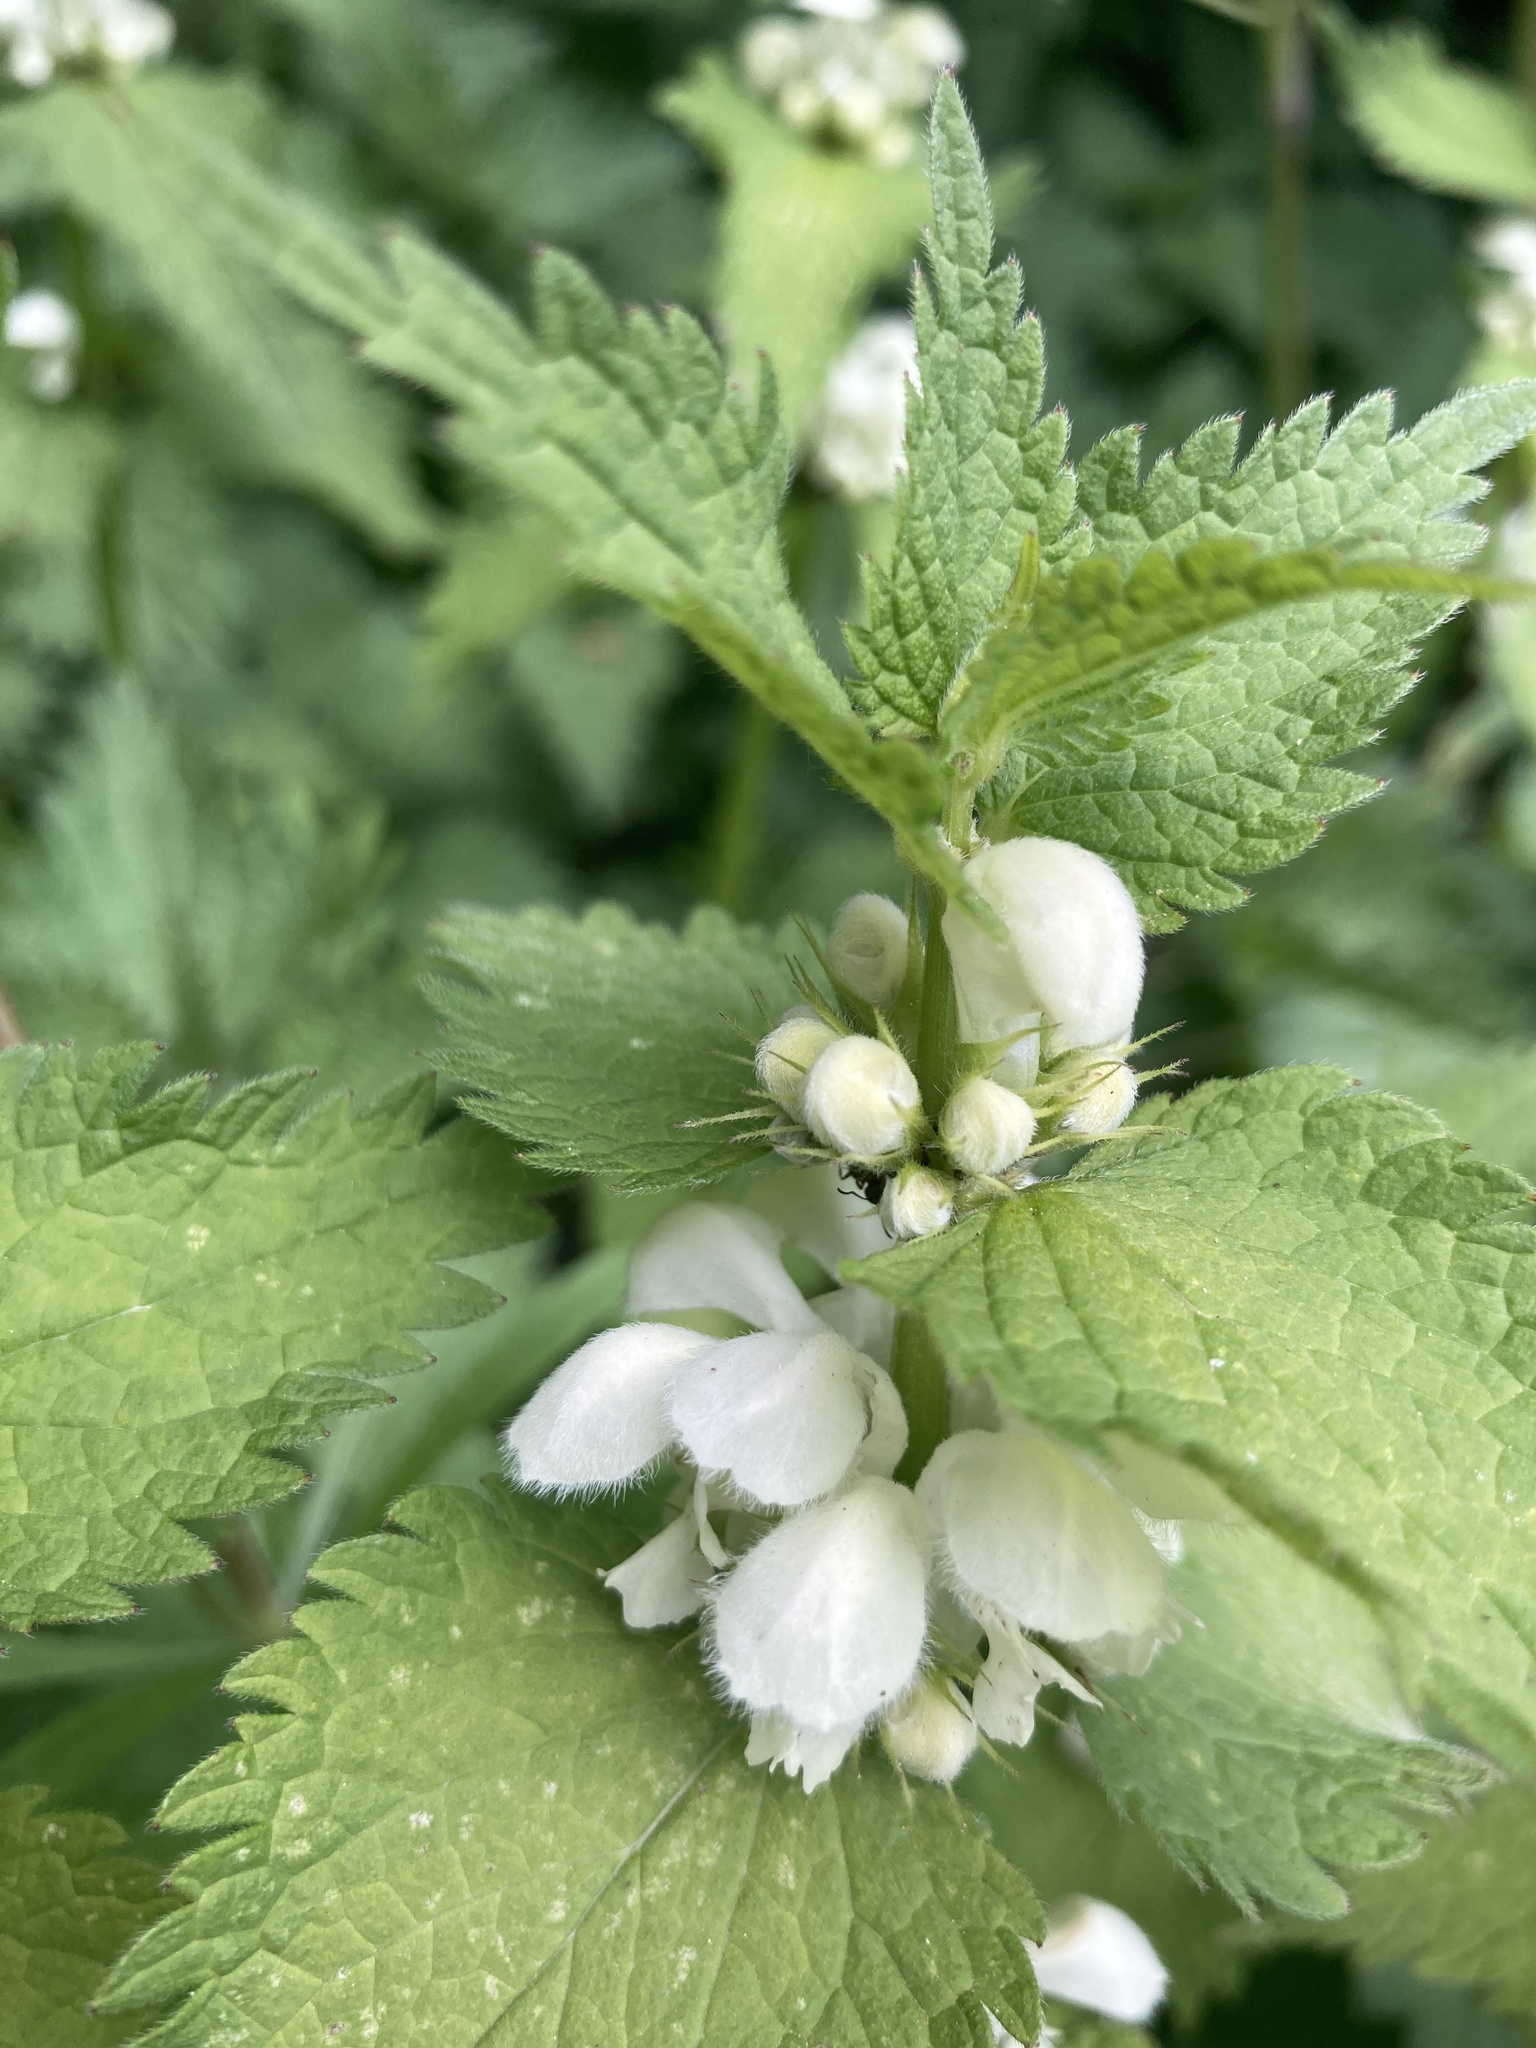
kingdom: Plantae
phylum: Tracheophyta
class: Magnoliopsida
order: Lamiales
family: Lamiaceae
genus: Lamium
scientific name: Lamium album
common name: White dead-nettle
